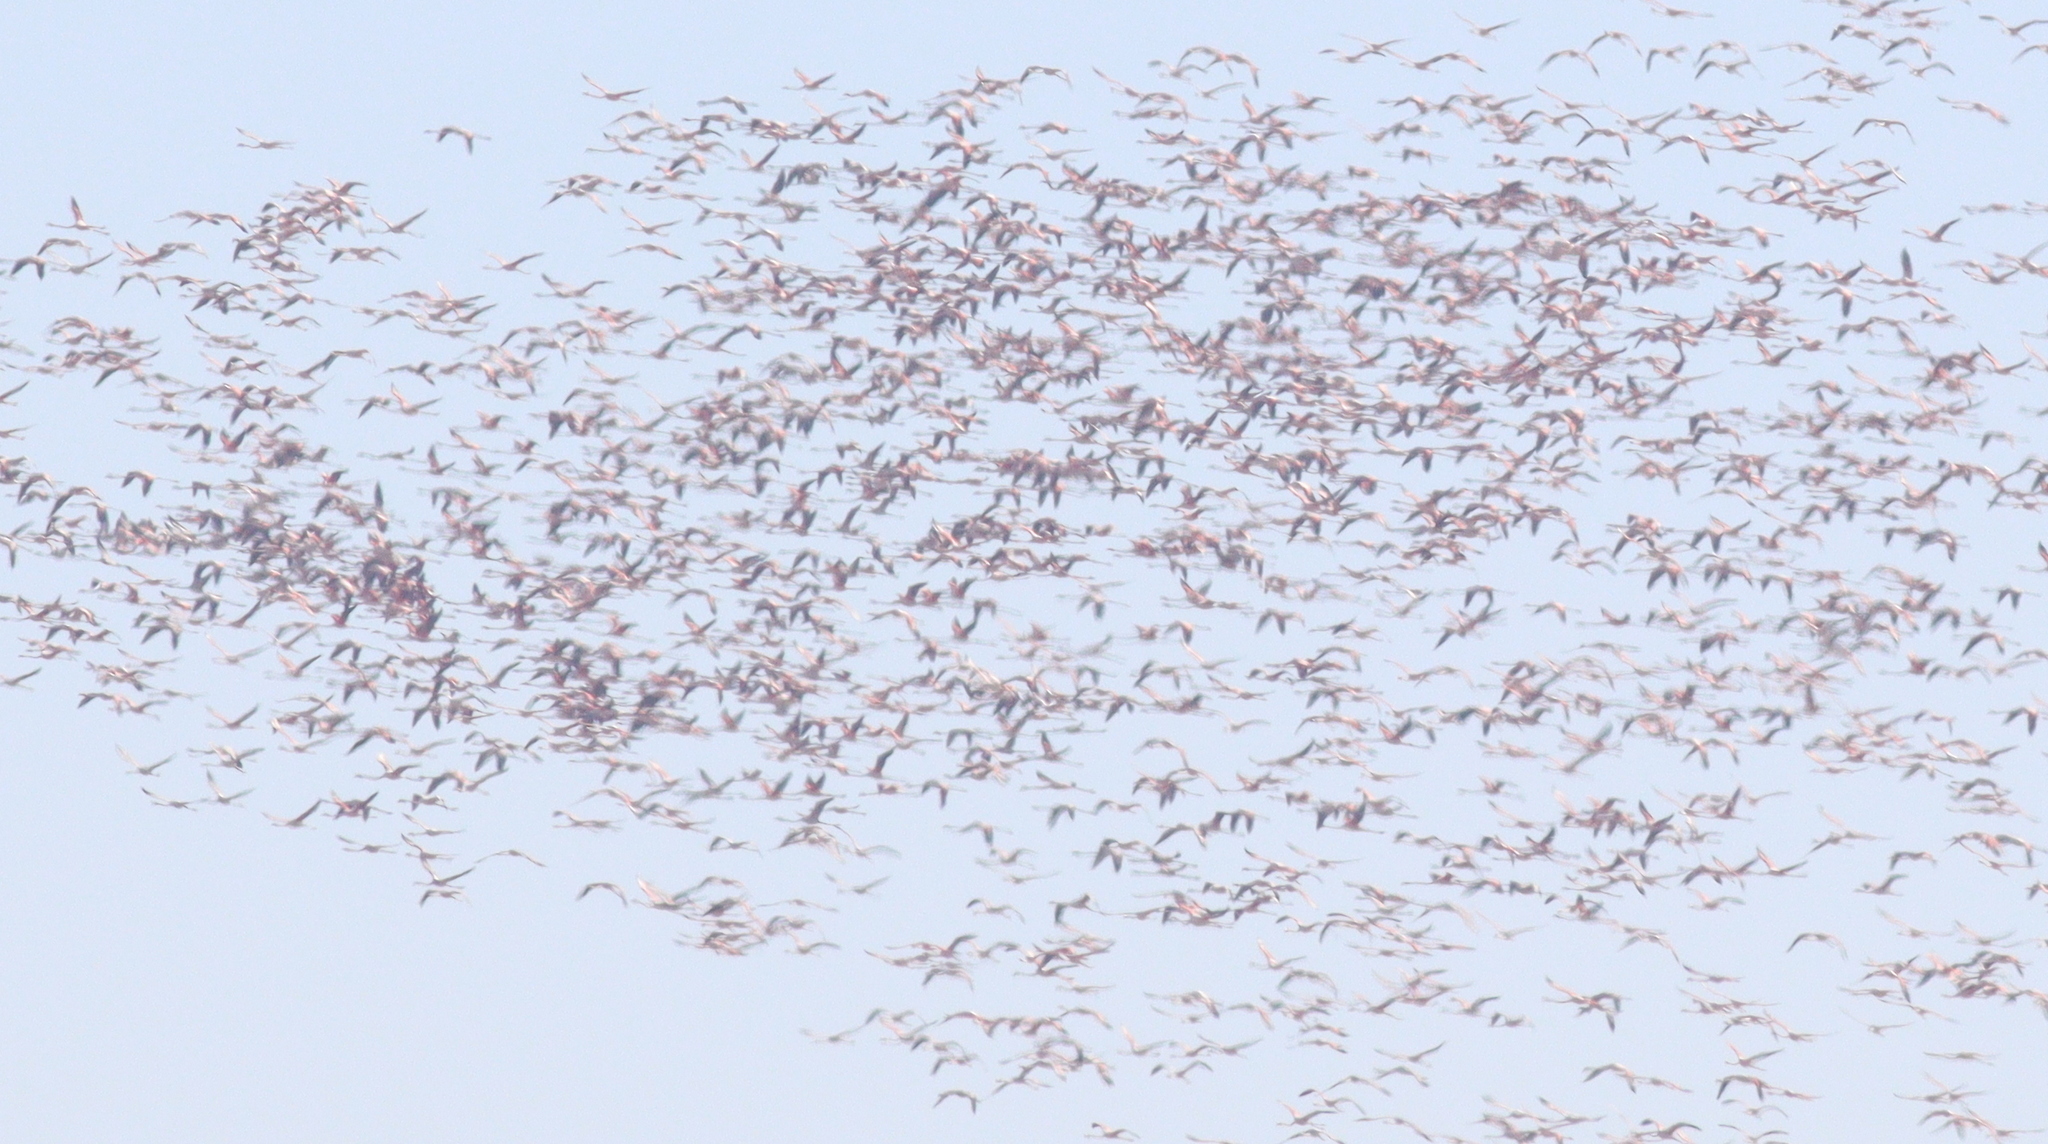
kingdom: Animalia
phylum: Chordata
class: Aves
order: Phoenicopteriformes
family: Phoenicopteridae
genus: Phoenicopterus
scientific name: Phoenicopterus roseus
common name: Greater flamingo
